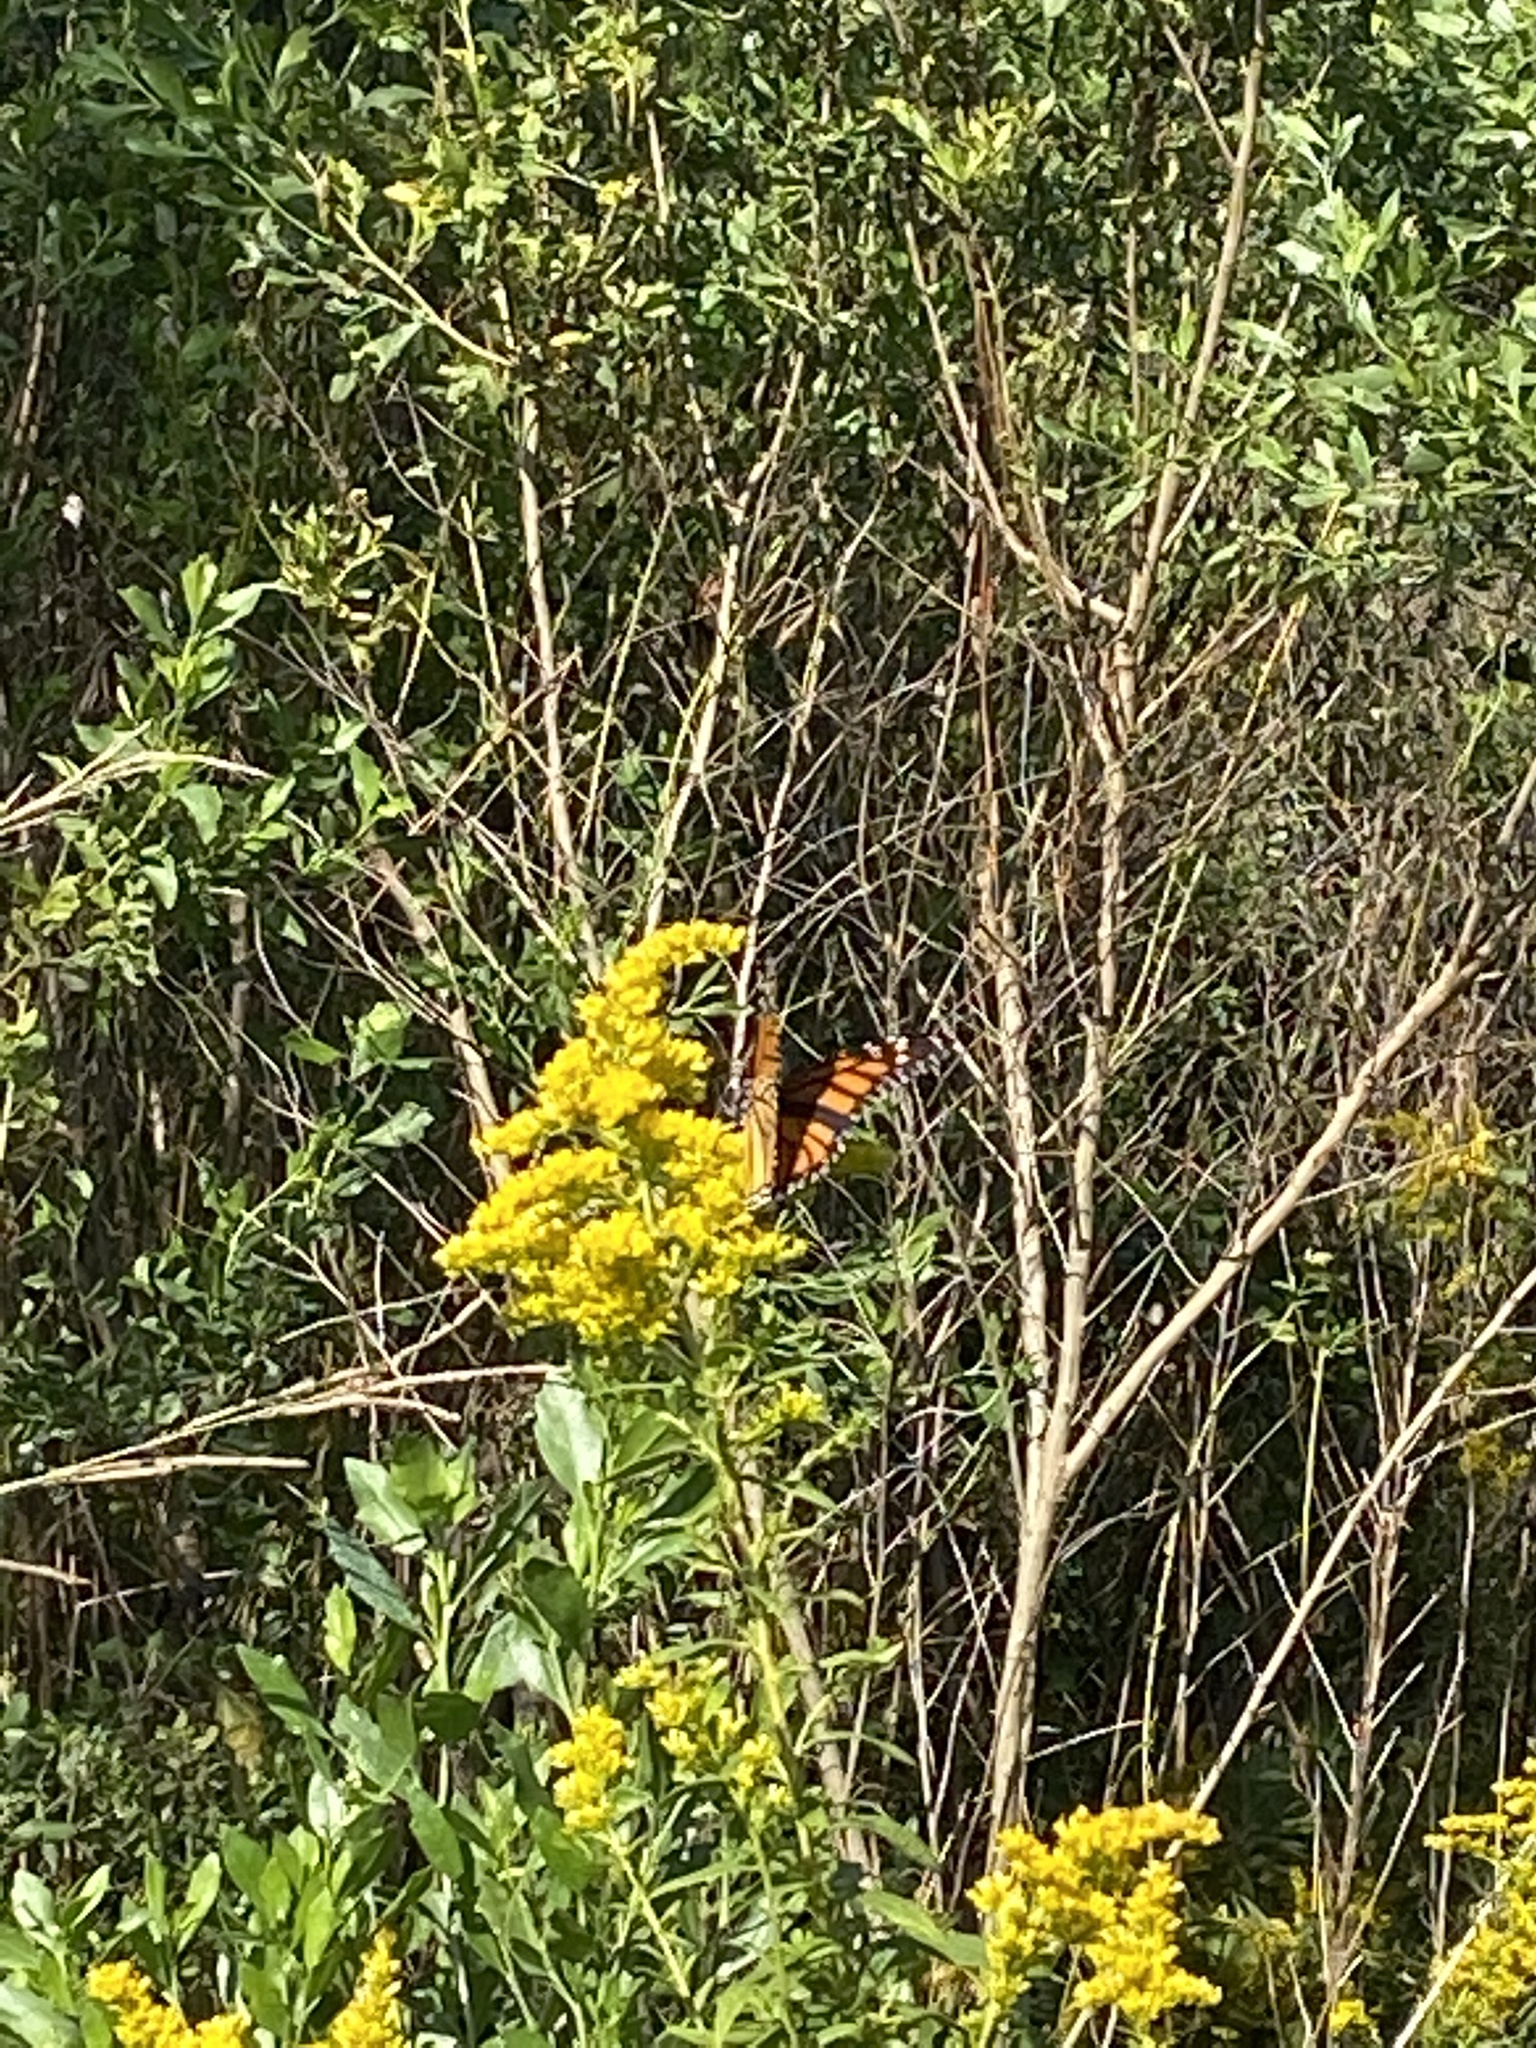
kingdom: Animalia
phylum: Arthropoda
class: Insecta
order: Lepidoptera
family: Nymphalidae
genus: Danaus
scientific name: Danaus plexippus
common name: Monarch
